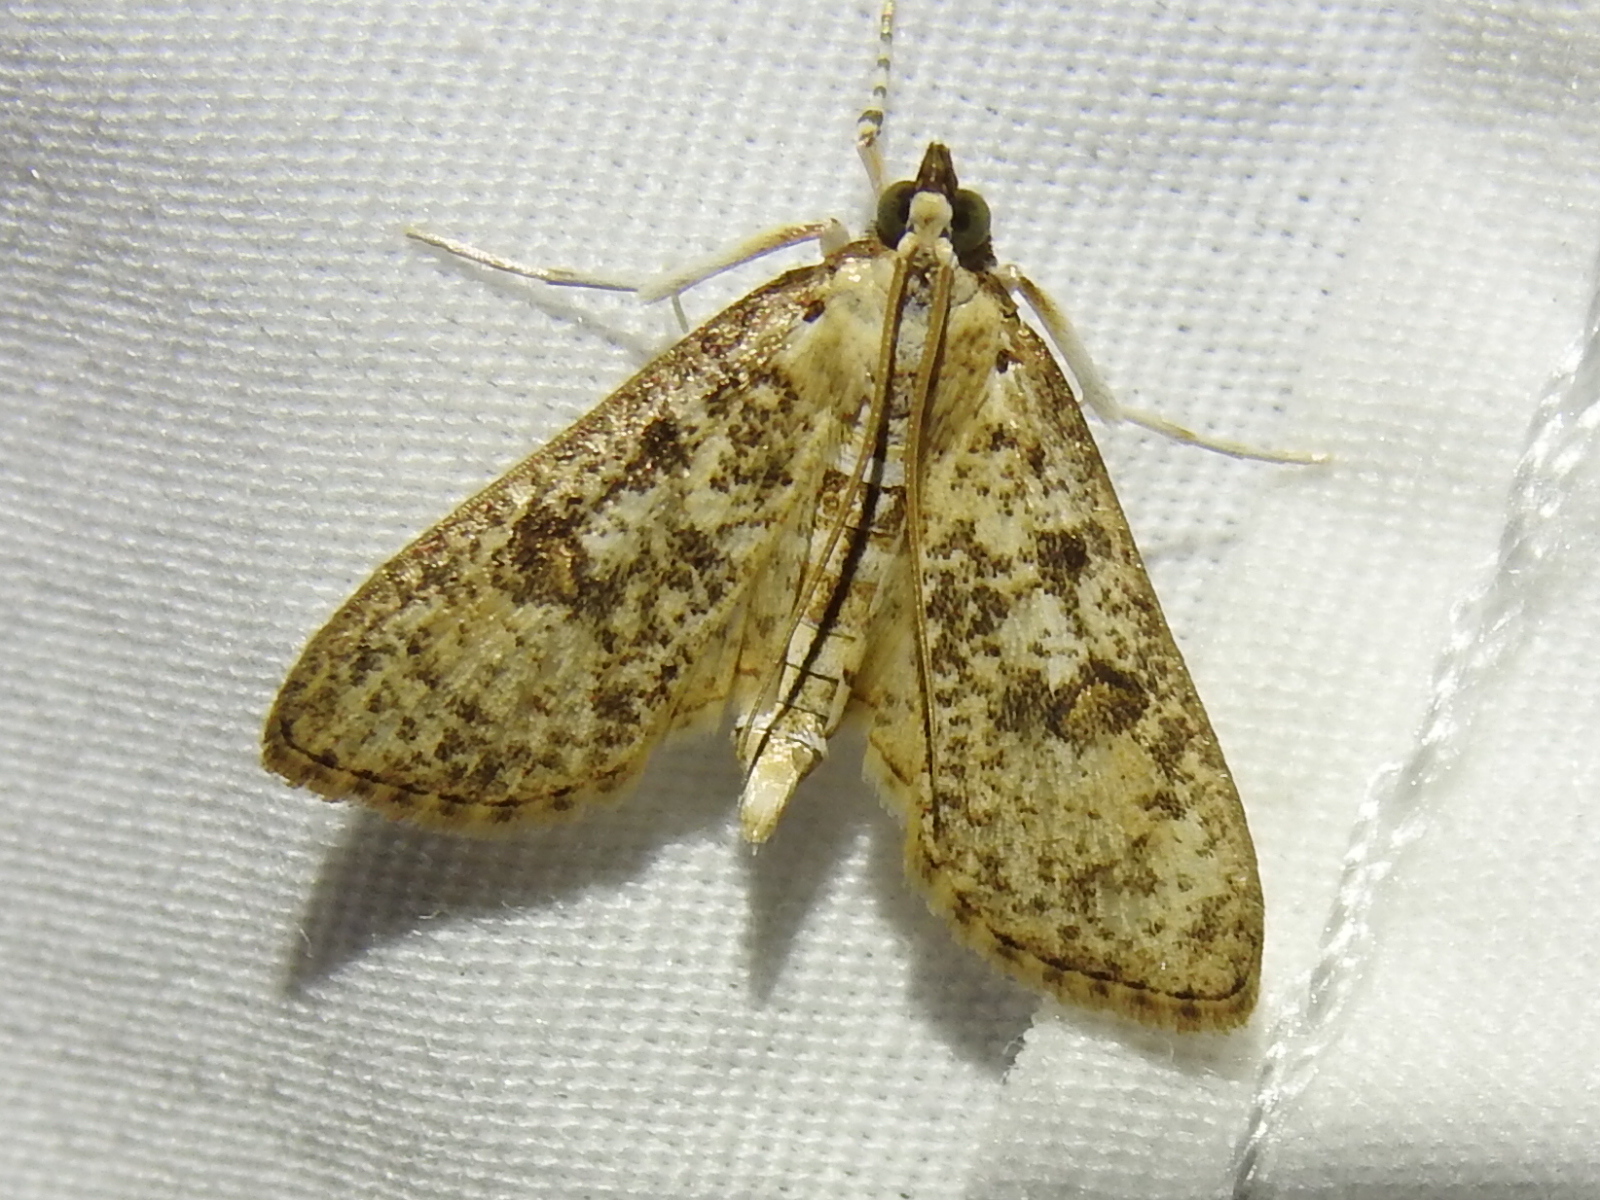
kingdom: Animalia
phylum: Arthropoda
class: Insecta
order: Lepidoptera
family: Crambidae
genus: Palpita
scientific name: Palpita magniferalis
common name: Splendid palpita moth
